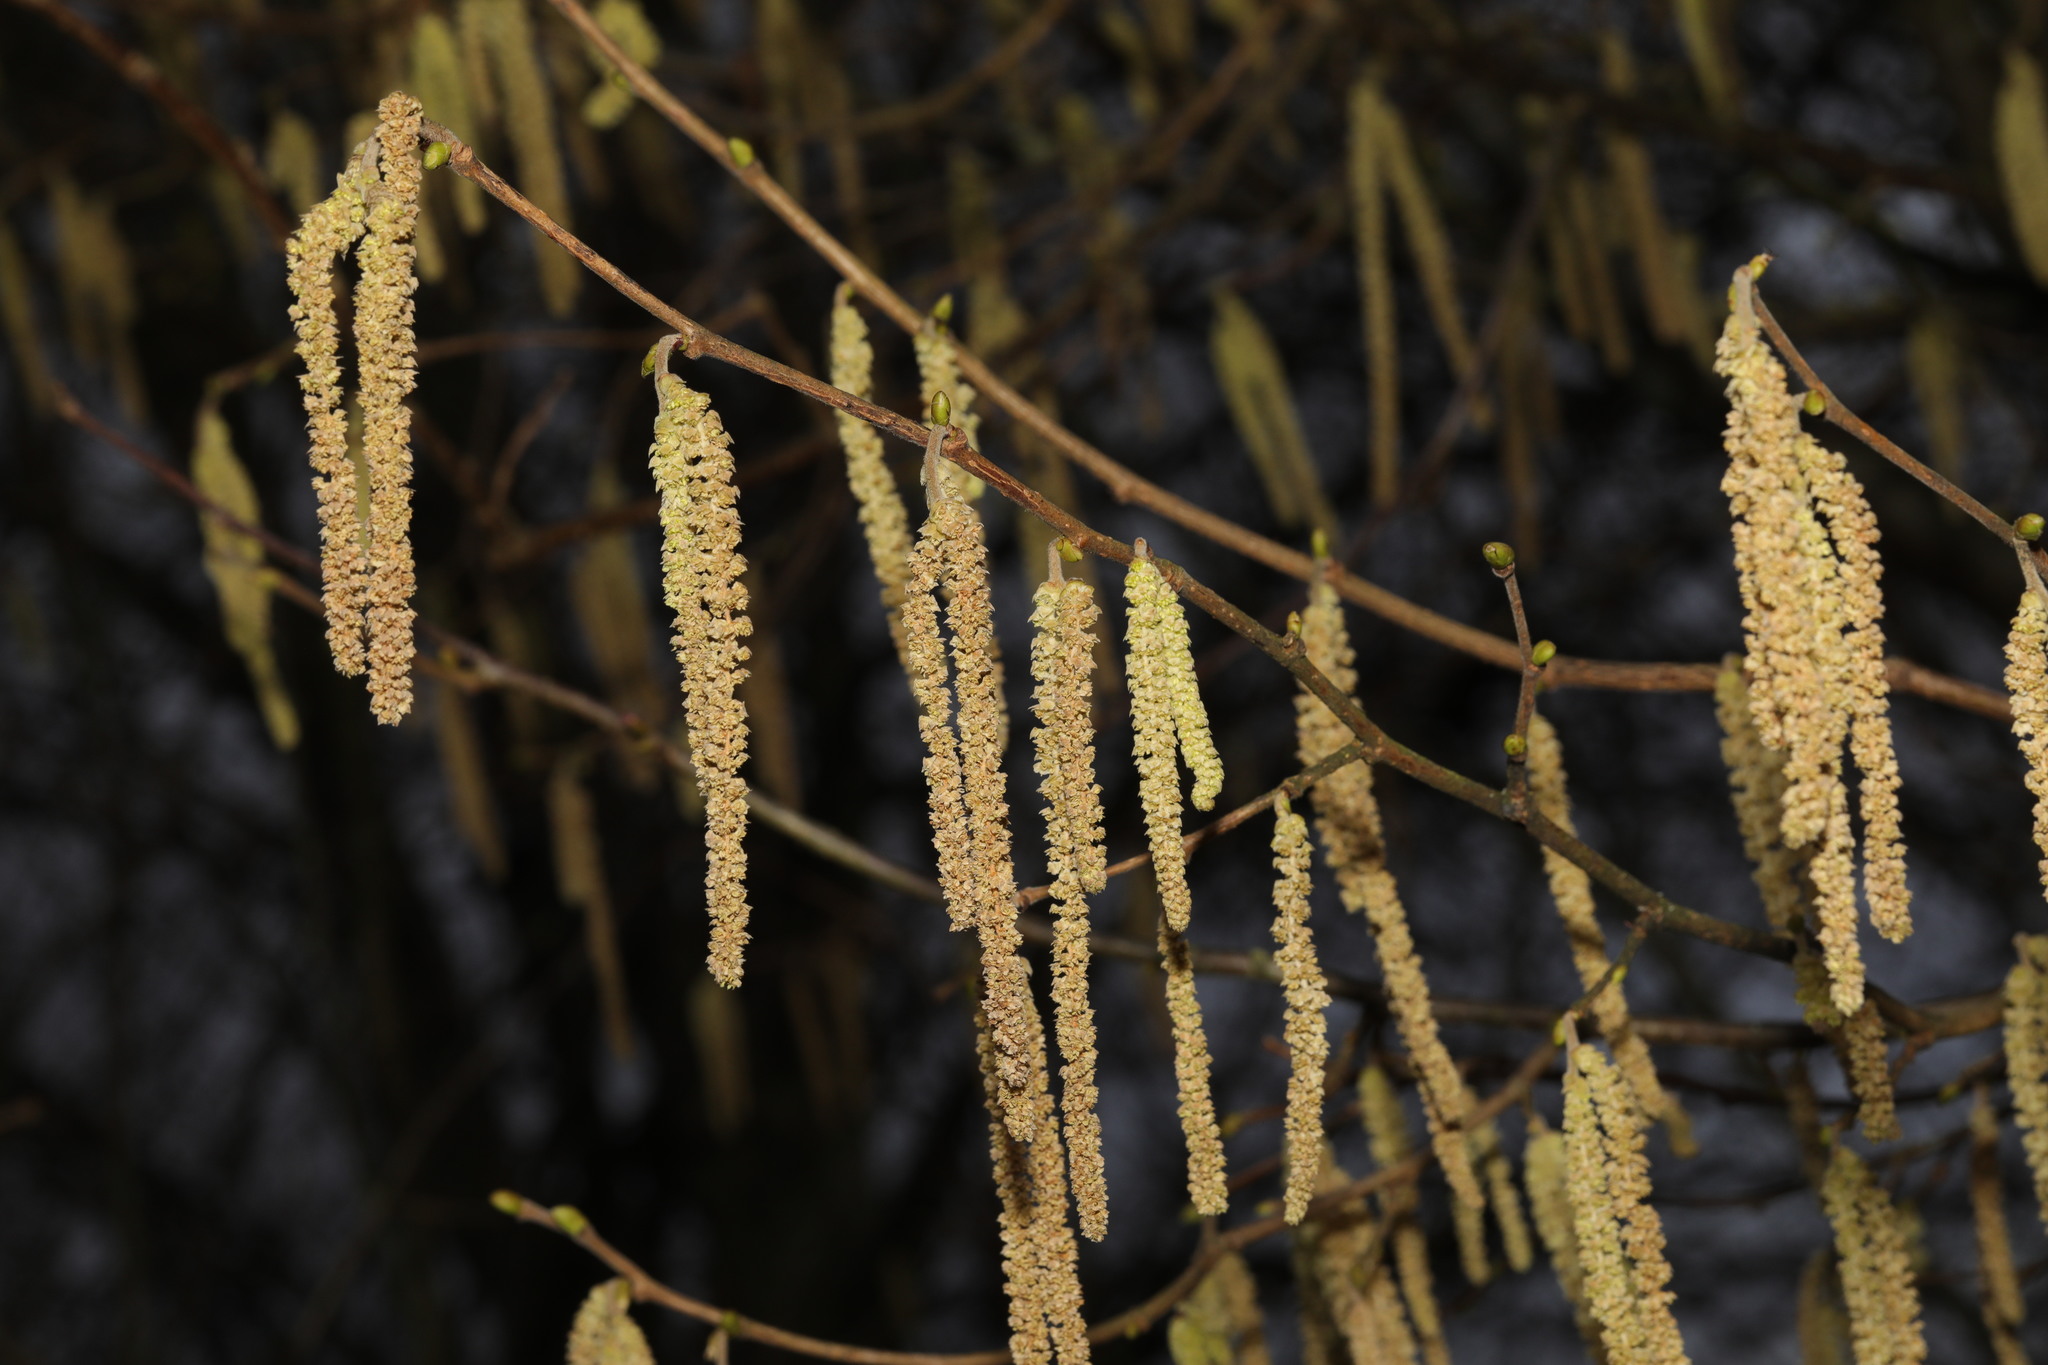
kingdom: Plantae
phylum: Tracheophyta
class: Magnoliopsida
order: Fagales
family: Betulaceae
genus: Corylus
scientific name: Corylus avellana
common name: European hazel
